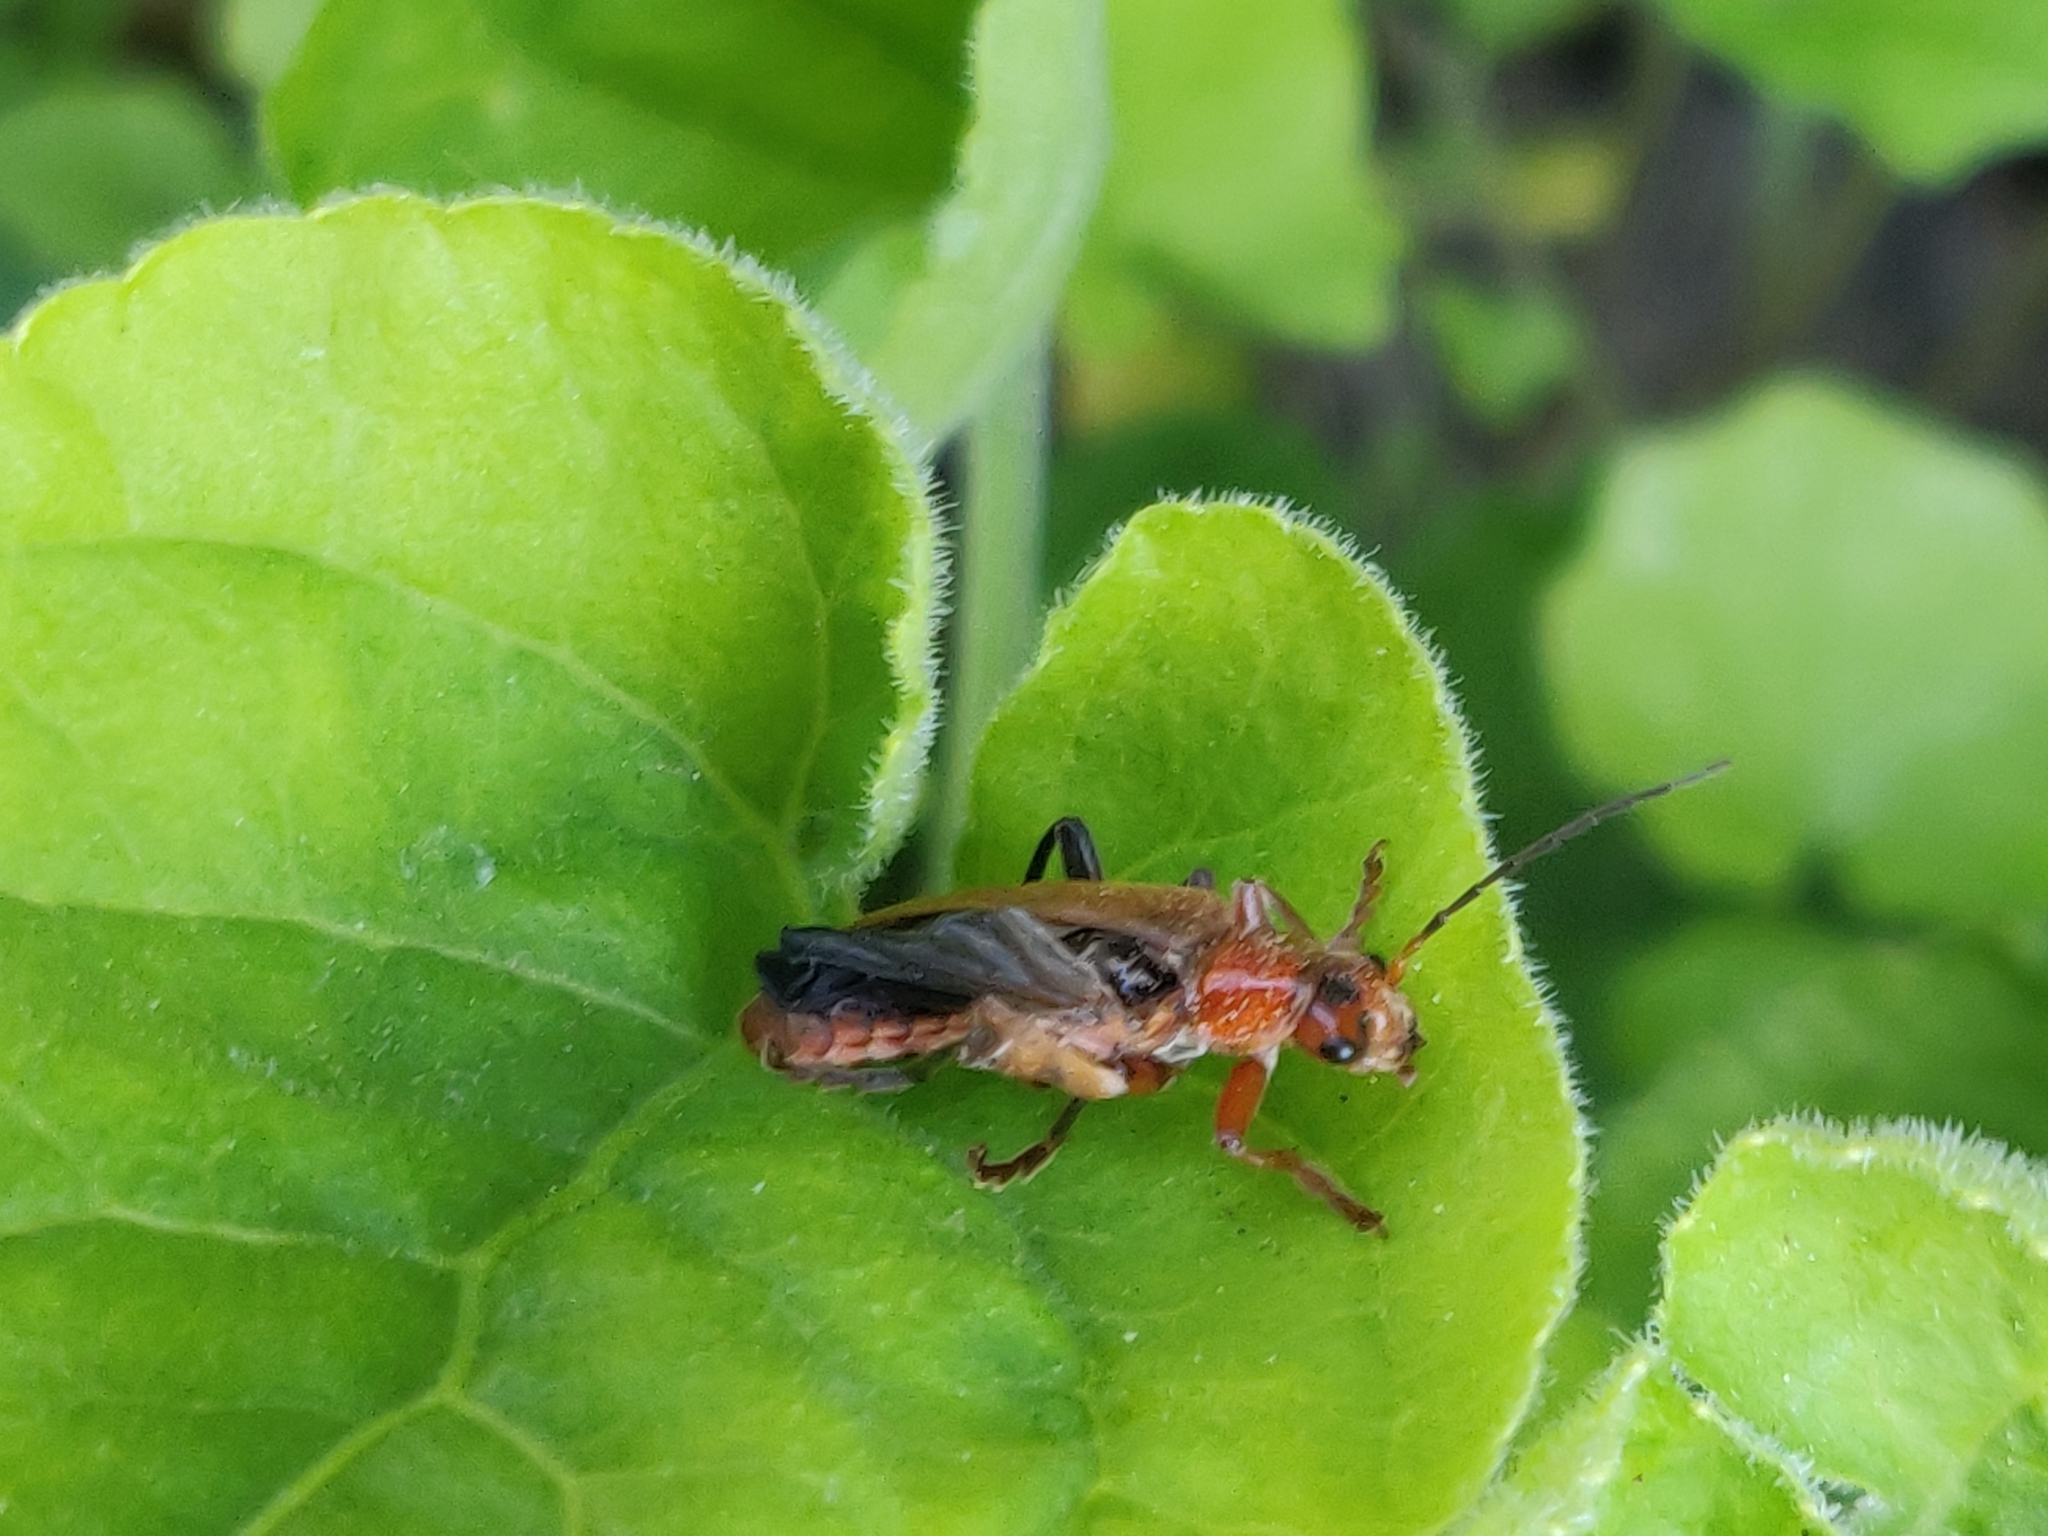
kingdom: Animalia
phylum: Arthropoda
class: Insecta
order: Coleoptera
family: Cantharidae
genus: Cantharis
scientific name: Cantharis livida
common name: Livid soldier beetle
